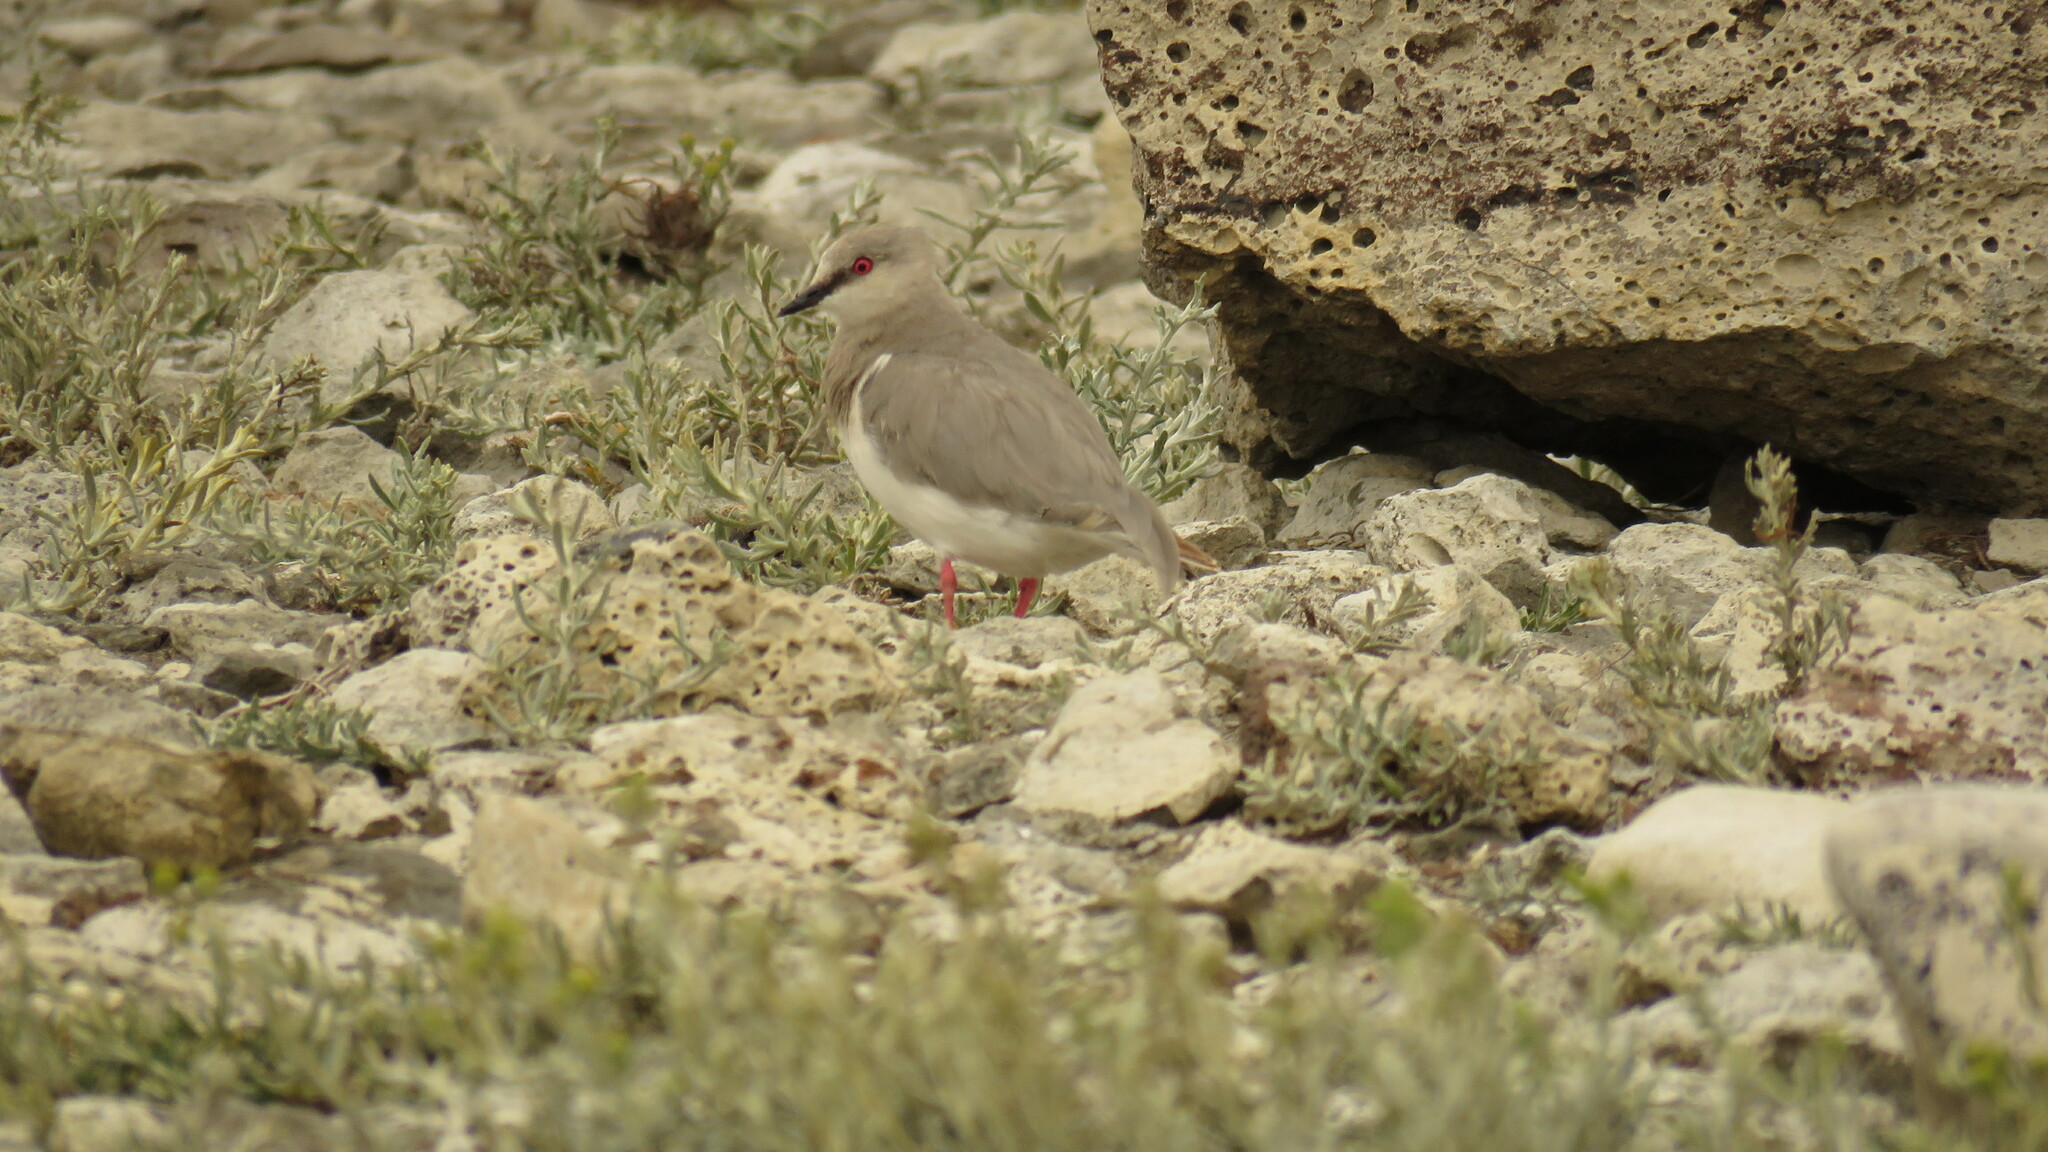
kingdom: Animalia
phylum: Chordata
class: Aves
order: Charadriiformes
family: Pluvianellidae
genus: Pluvianellus
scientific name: Pluvianellus socialis
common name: Magellanic plover
